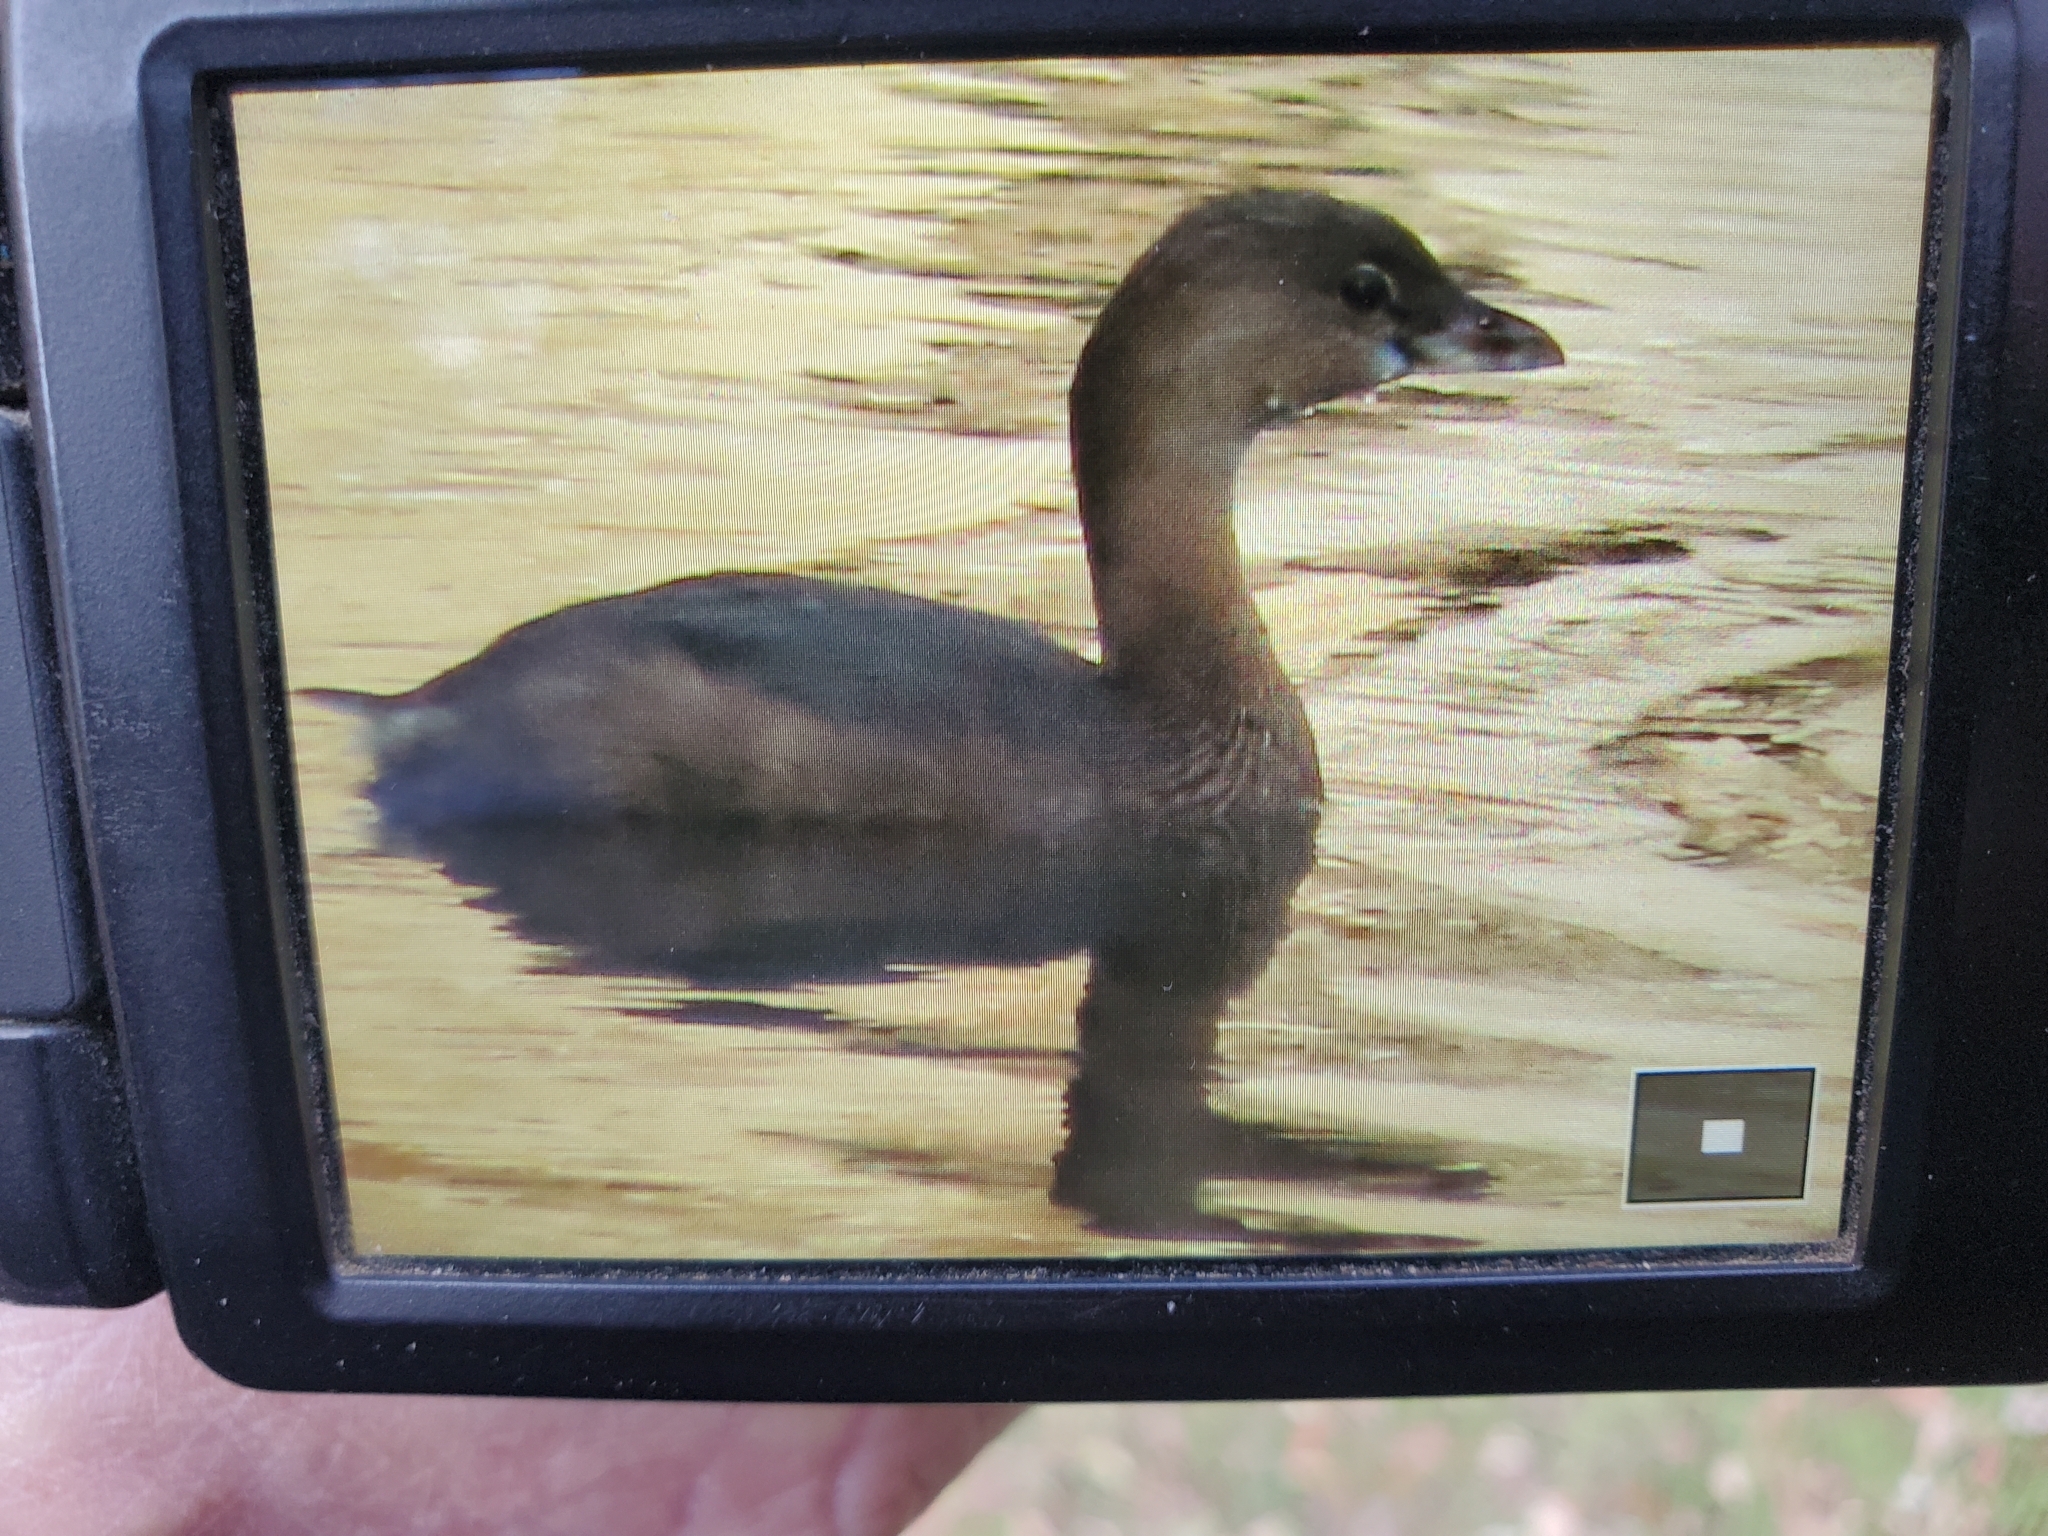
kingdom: Animalia
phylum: Chordata
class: Aves
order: Podicipediformes
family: Podicipedidae
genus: Podilymbus
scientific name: Podilymbus podiceps
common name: Pied-billed grebe
